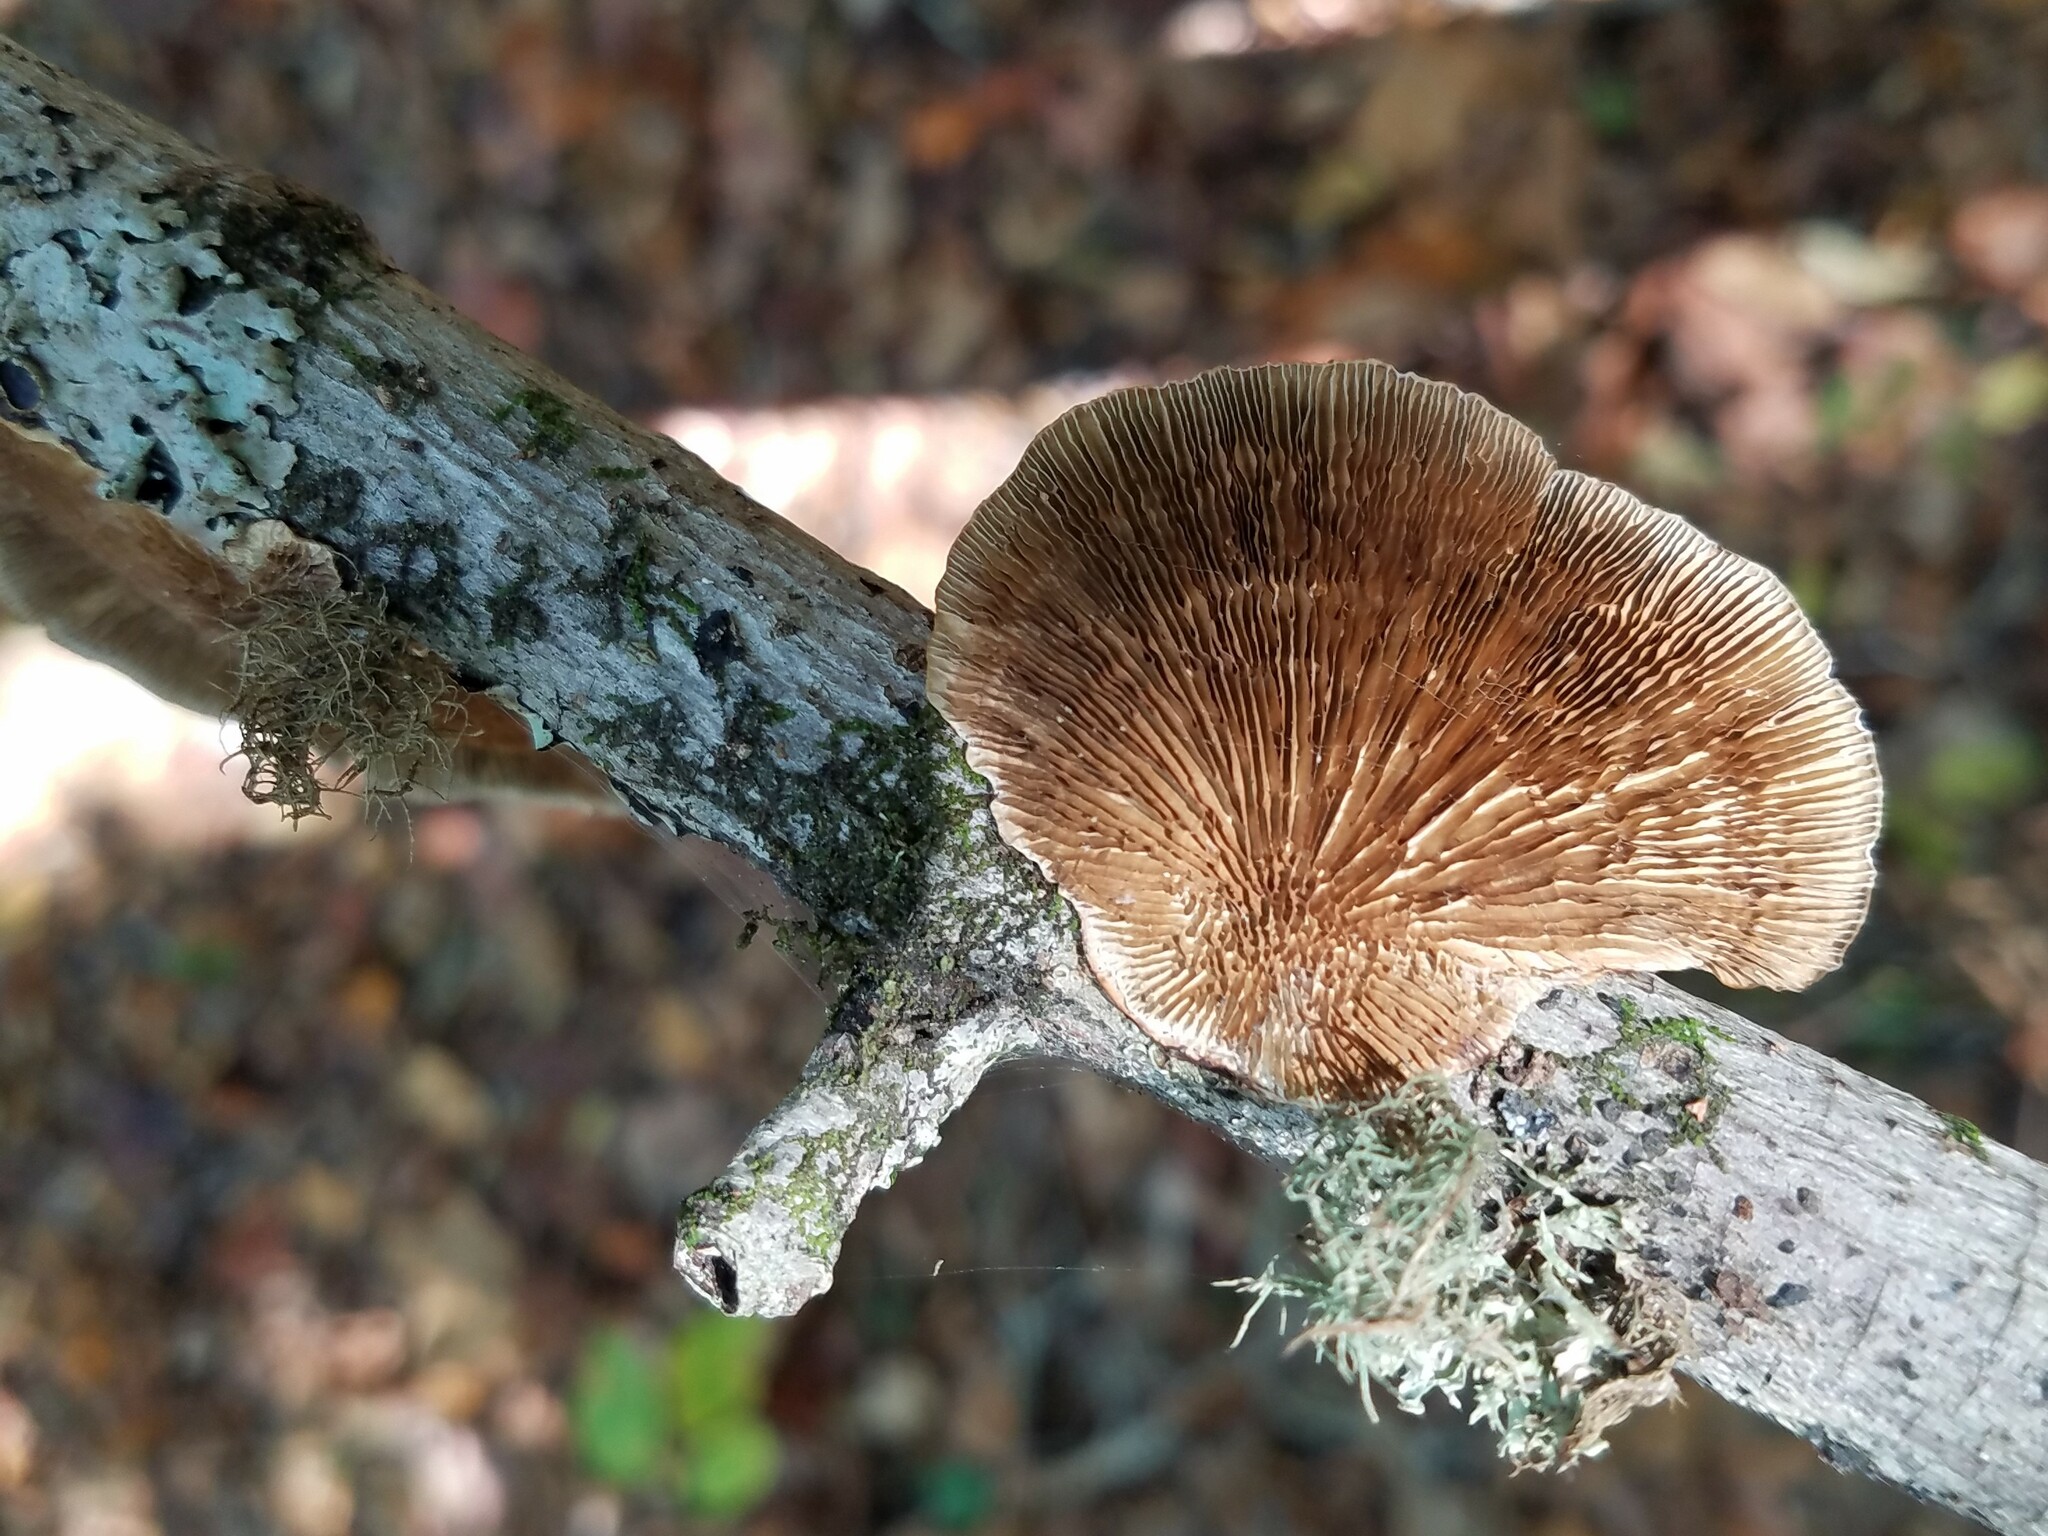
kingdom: Fungi
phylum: Basidiomycota
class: Agaricomycetes
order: Polyporales
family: Polyporaceae
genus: Daedaleopsis
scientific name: Daedaleopsis confragosa
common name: Blushing bracket
